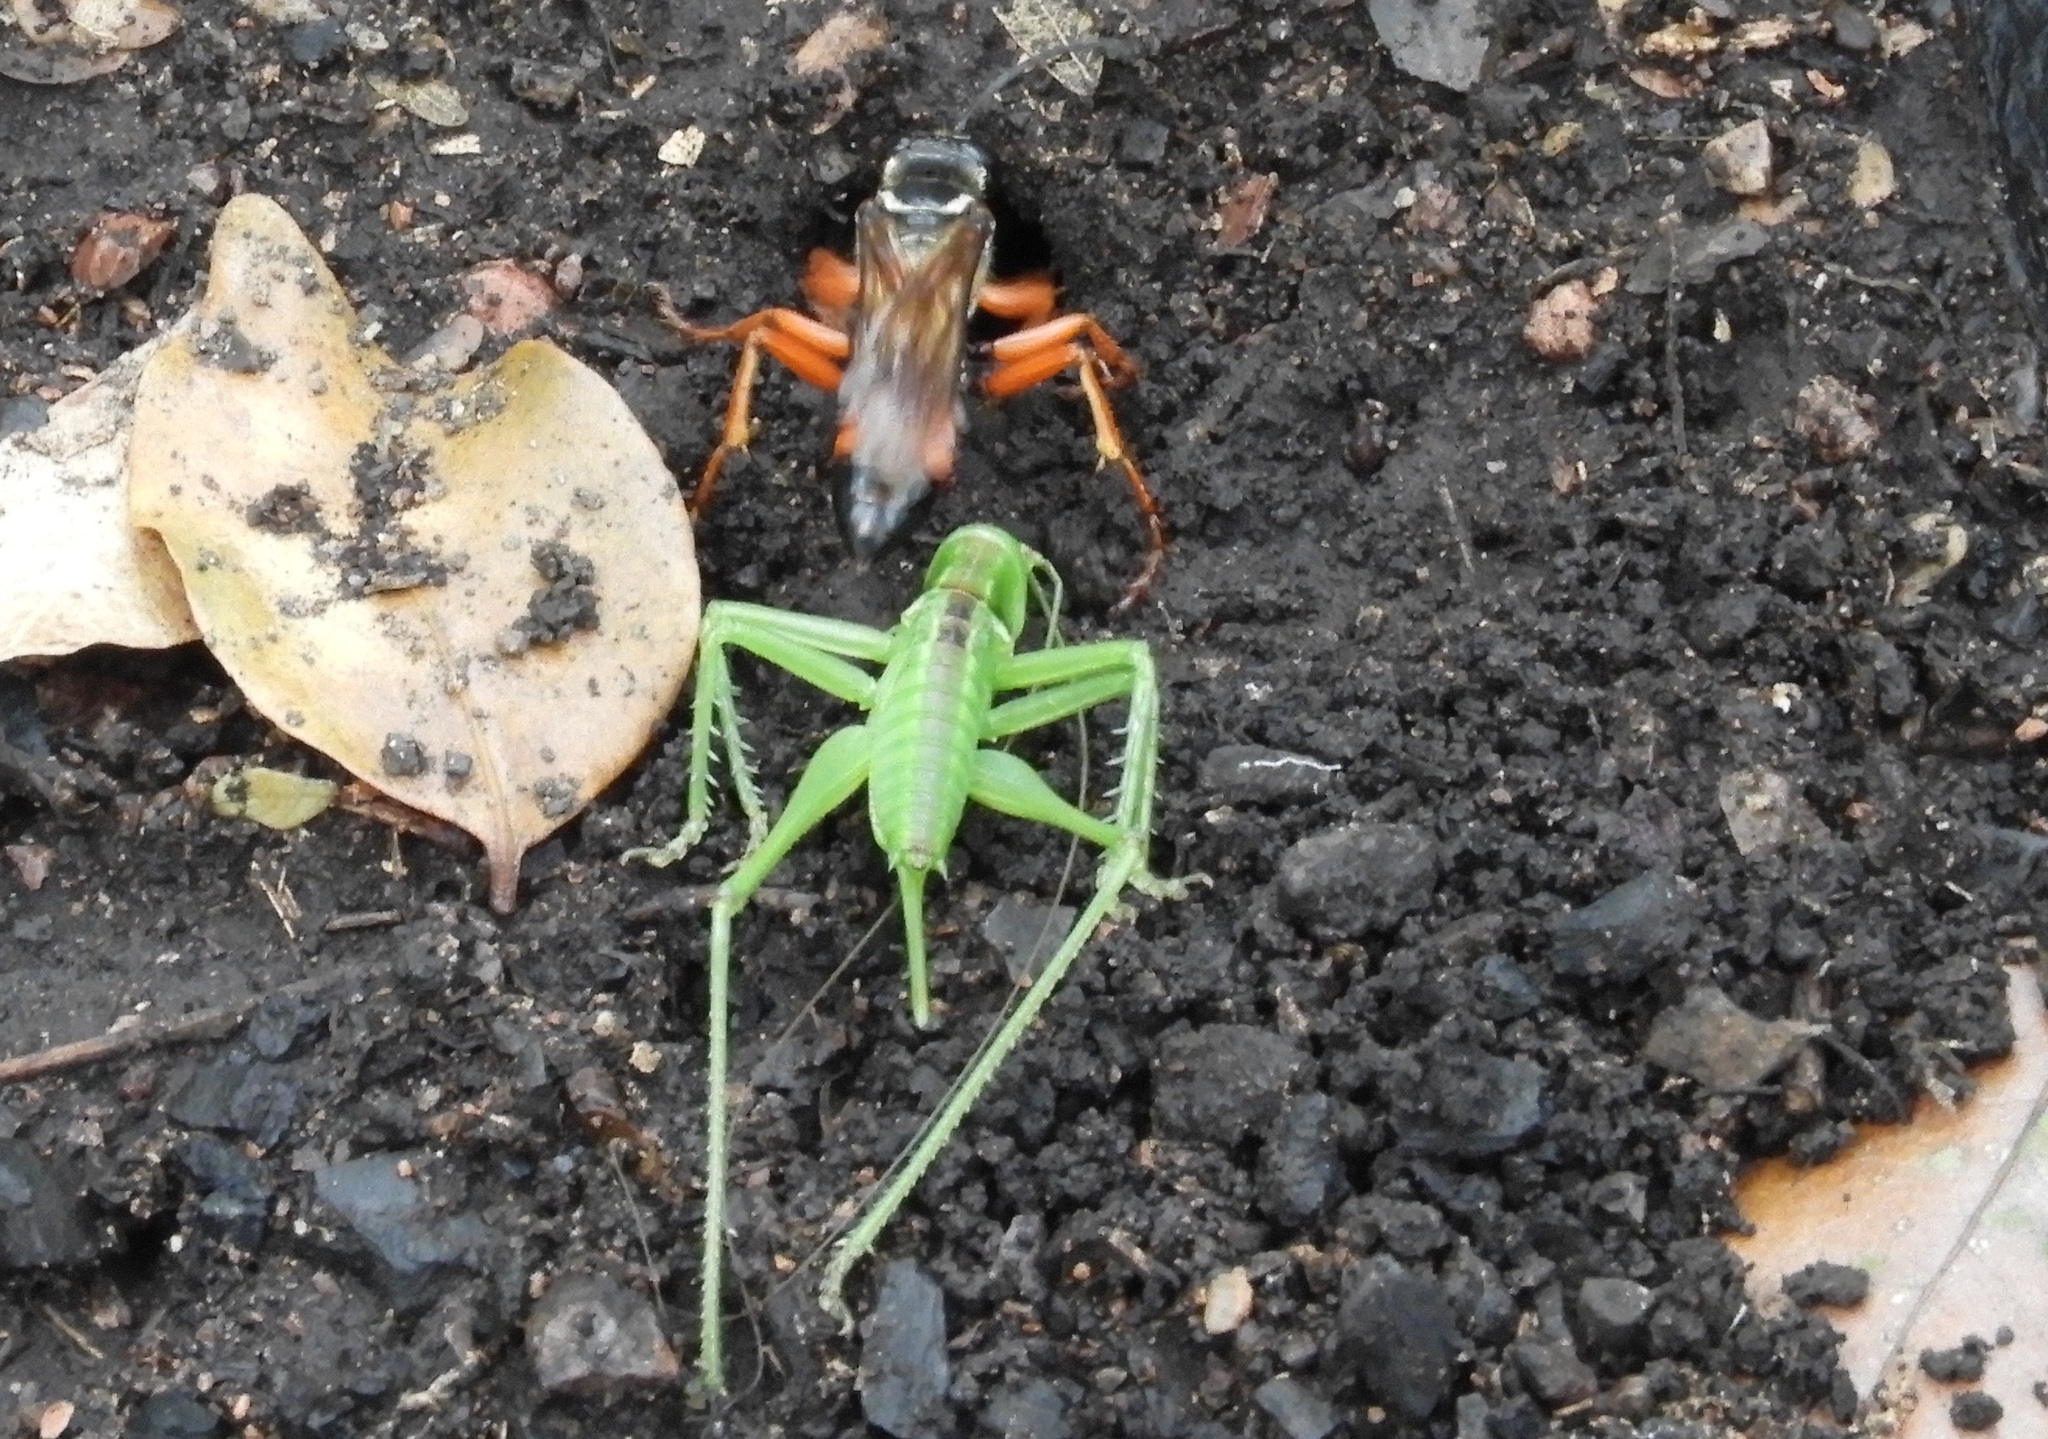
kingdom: Animalia
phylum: Arthropoda
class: Insecta
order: Hymenoptera
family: Sphecidae
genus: Sphex
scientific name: Sphex ichneumoneus
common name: Great golden digger wasp
